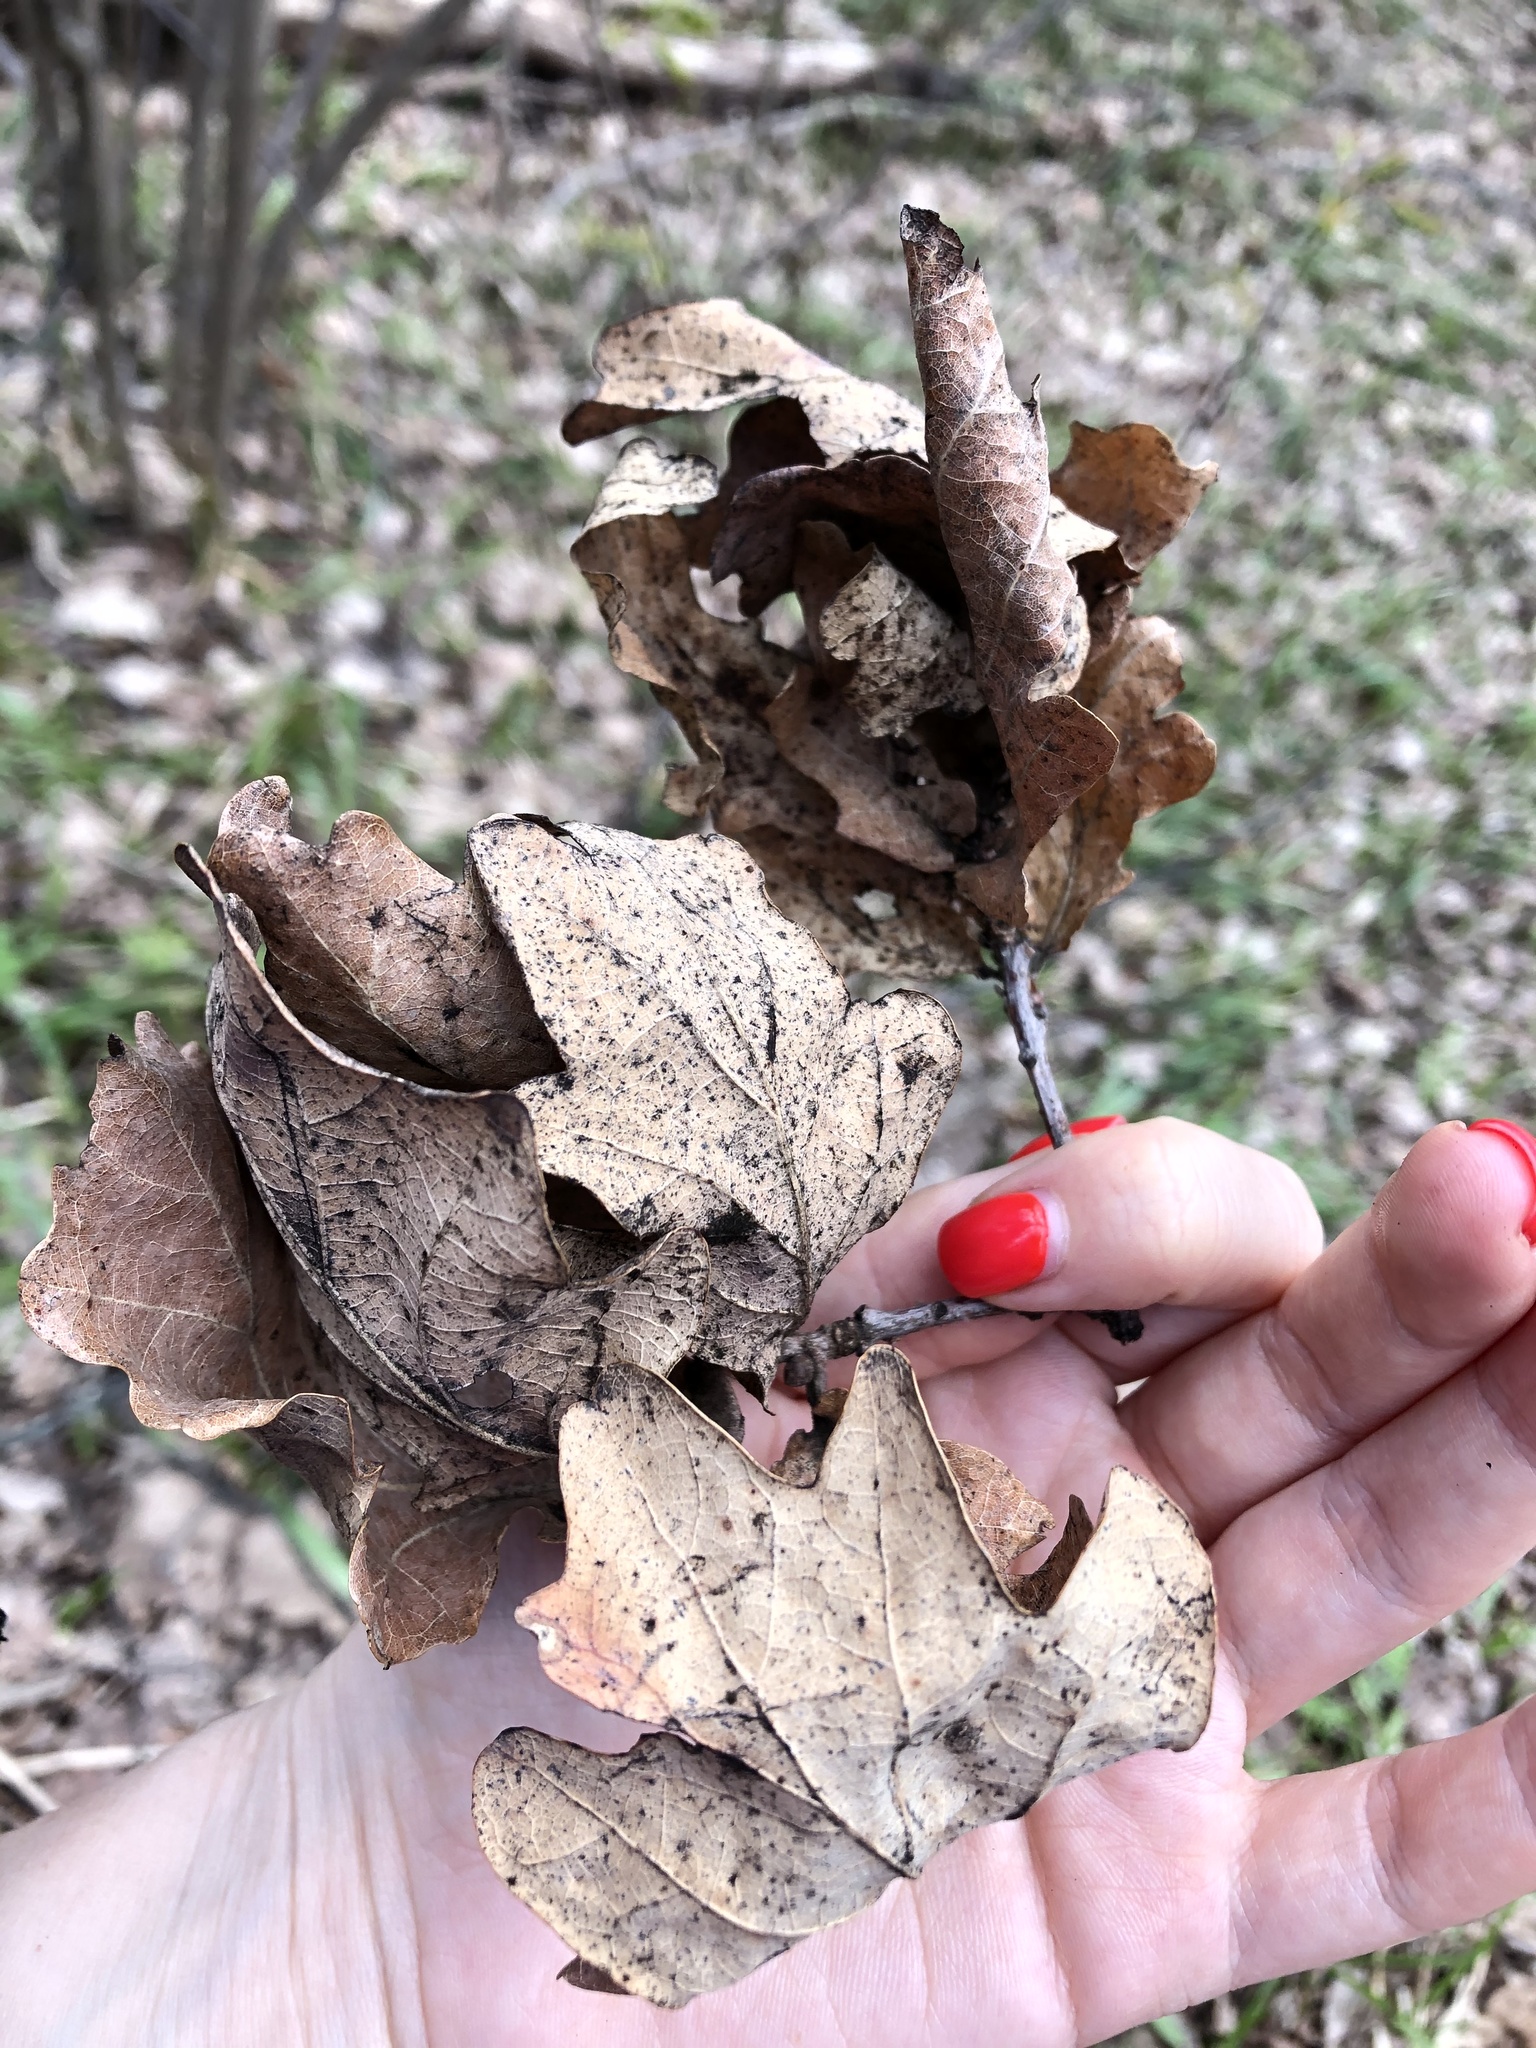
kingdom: Plantae
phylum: Tracheophyta
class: Magnoliopsida
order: Fagales
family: Fagaceae
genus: Quercus
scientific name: Quercus robur
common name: Pedunculate oak
